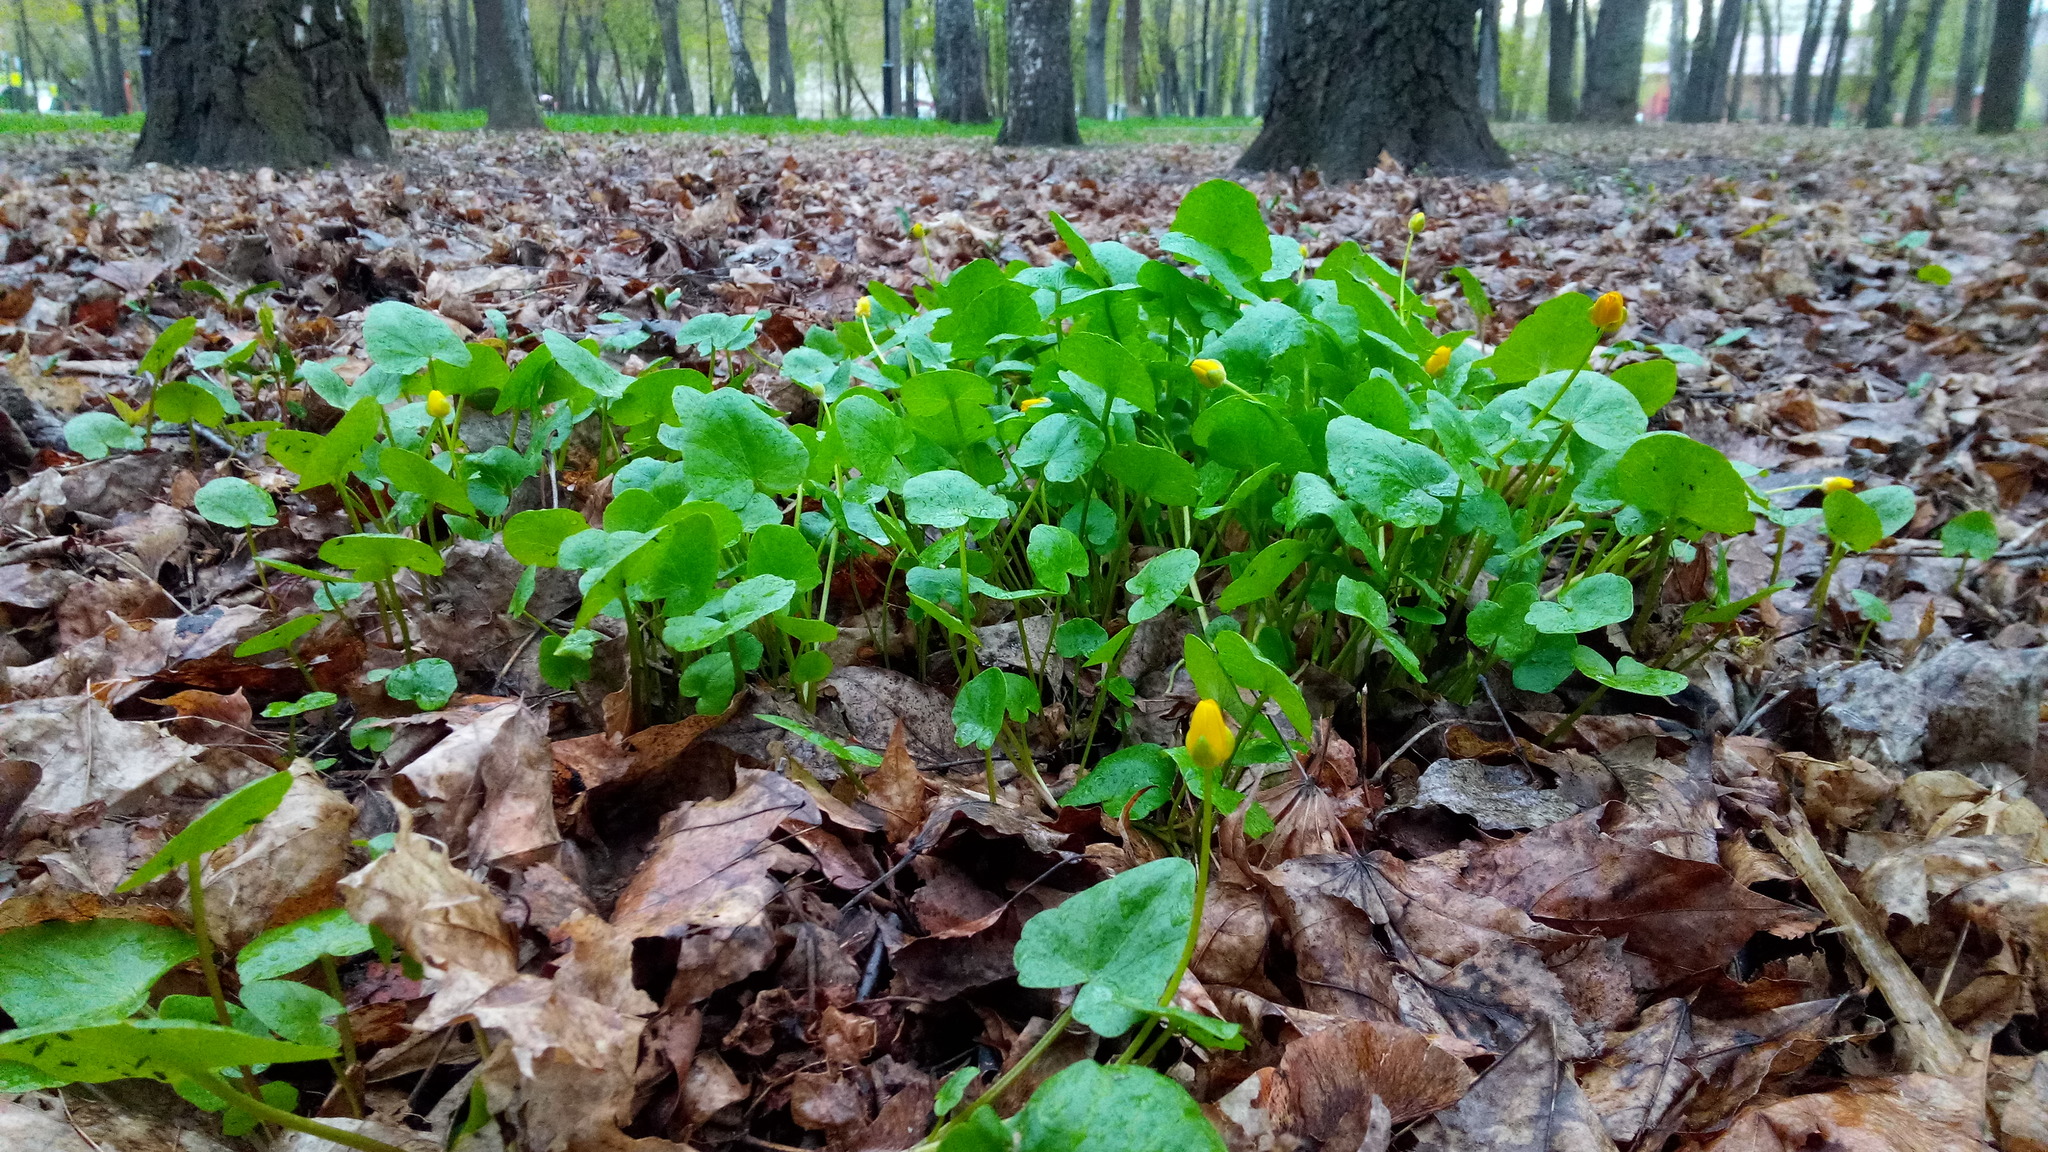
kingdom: Plantae
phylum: Tracheophyta
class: Magnoliopsida
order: Ranunculales
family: Ranunculaceae
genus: Ficaria
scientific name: Ficaria verna
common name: Lesser celandine
